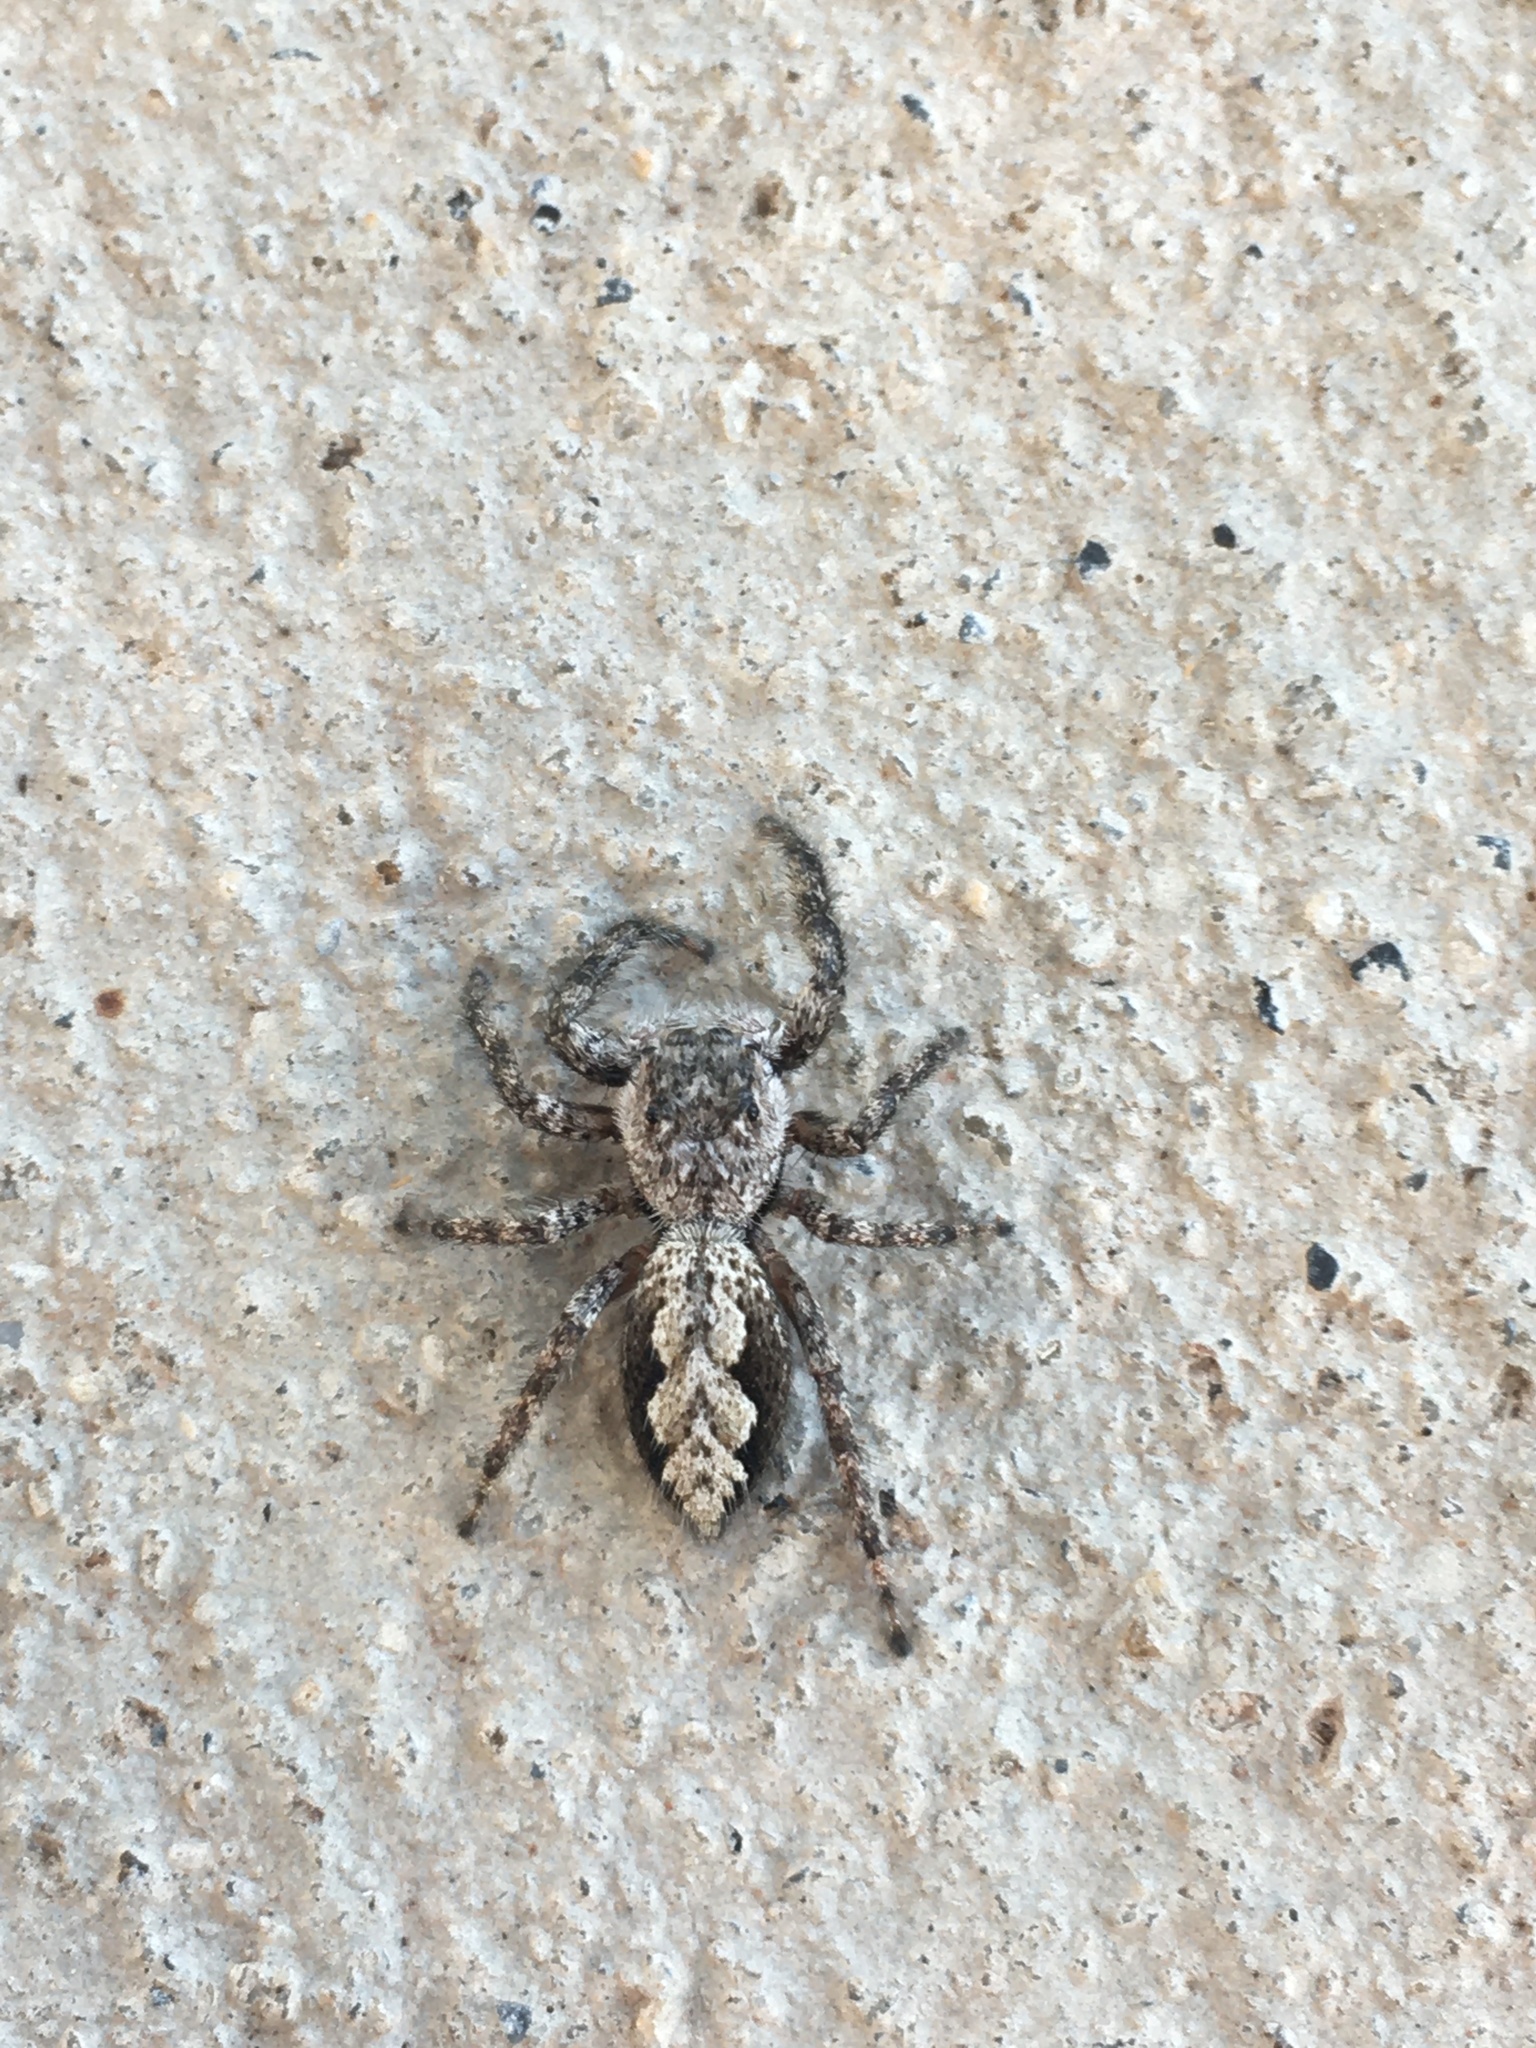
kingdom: Animalia
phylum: Arthropoda
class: Arachnida
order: Araneae
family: Salticidae
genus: Platycryptus
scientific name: Platycryptus undatus
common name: Tan jumping spider
